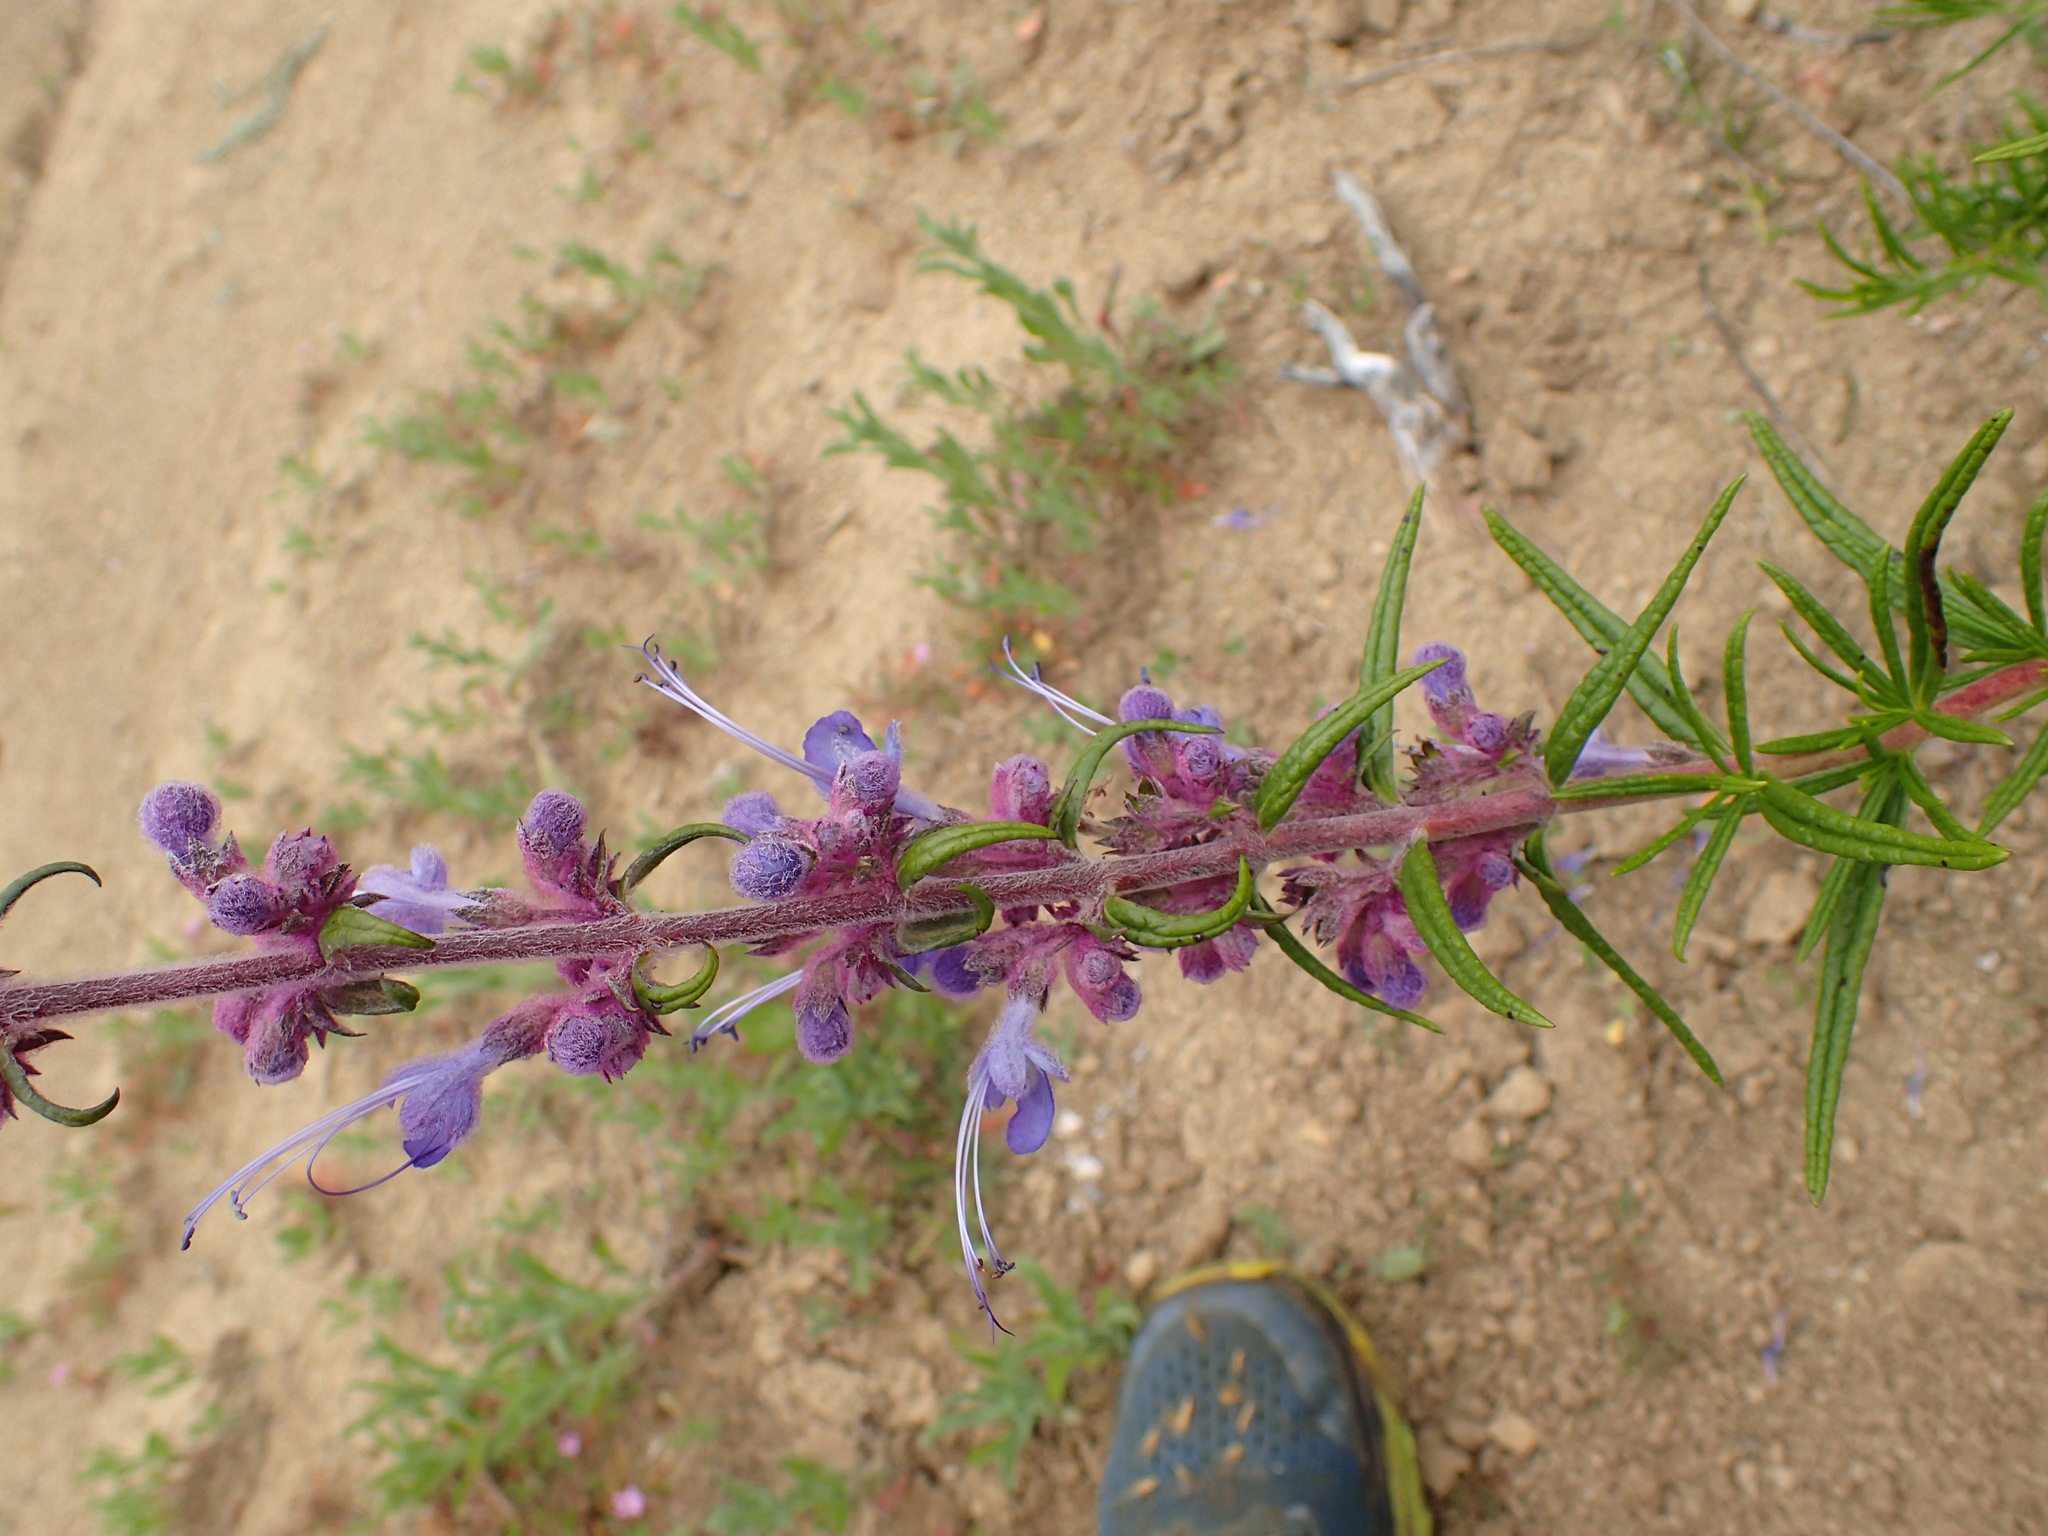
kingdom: Plantae
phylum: Tracheophyta
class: Magnoliopsida
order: Lamiales
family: Lamiaceae
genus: Trichostema
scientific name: Trichostema lanatum
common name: Woolly bluecurls
